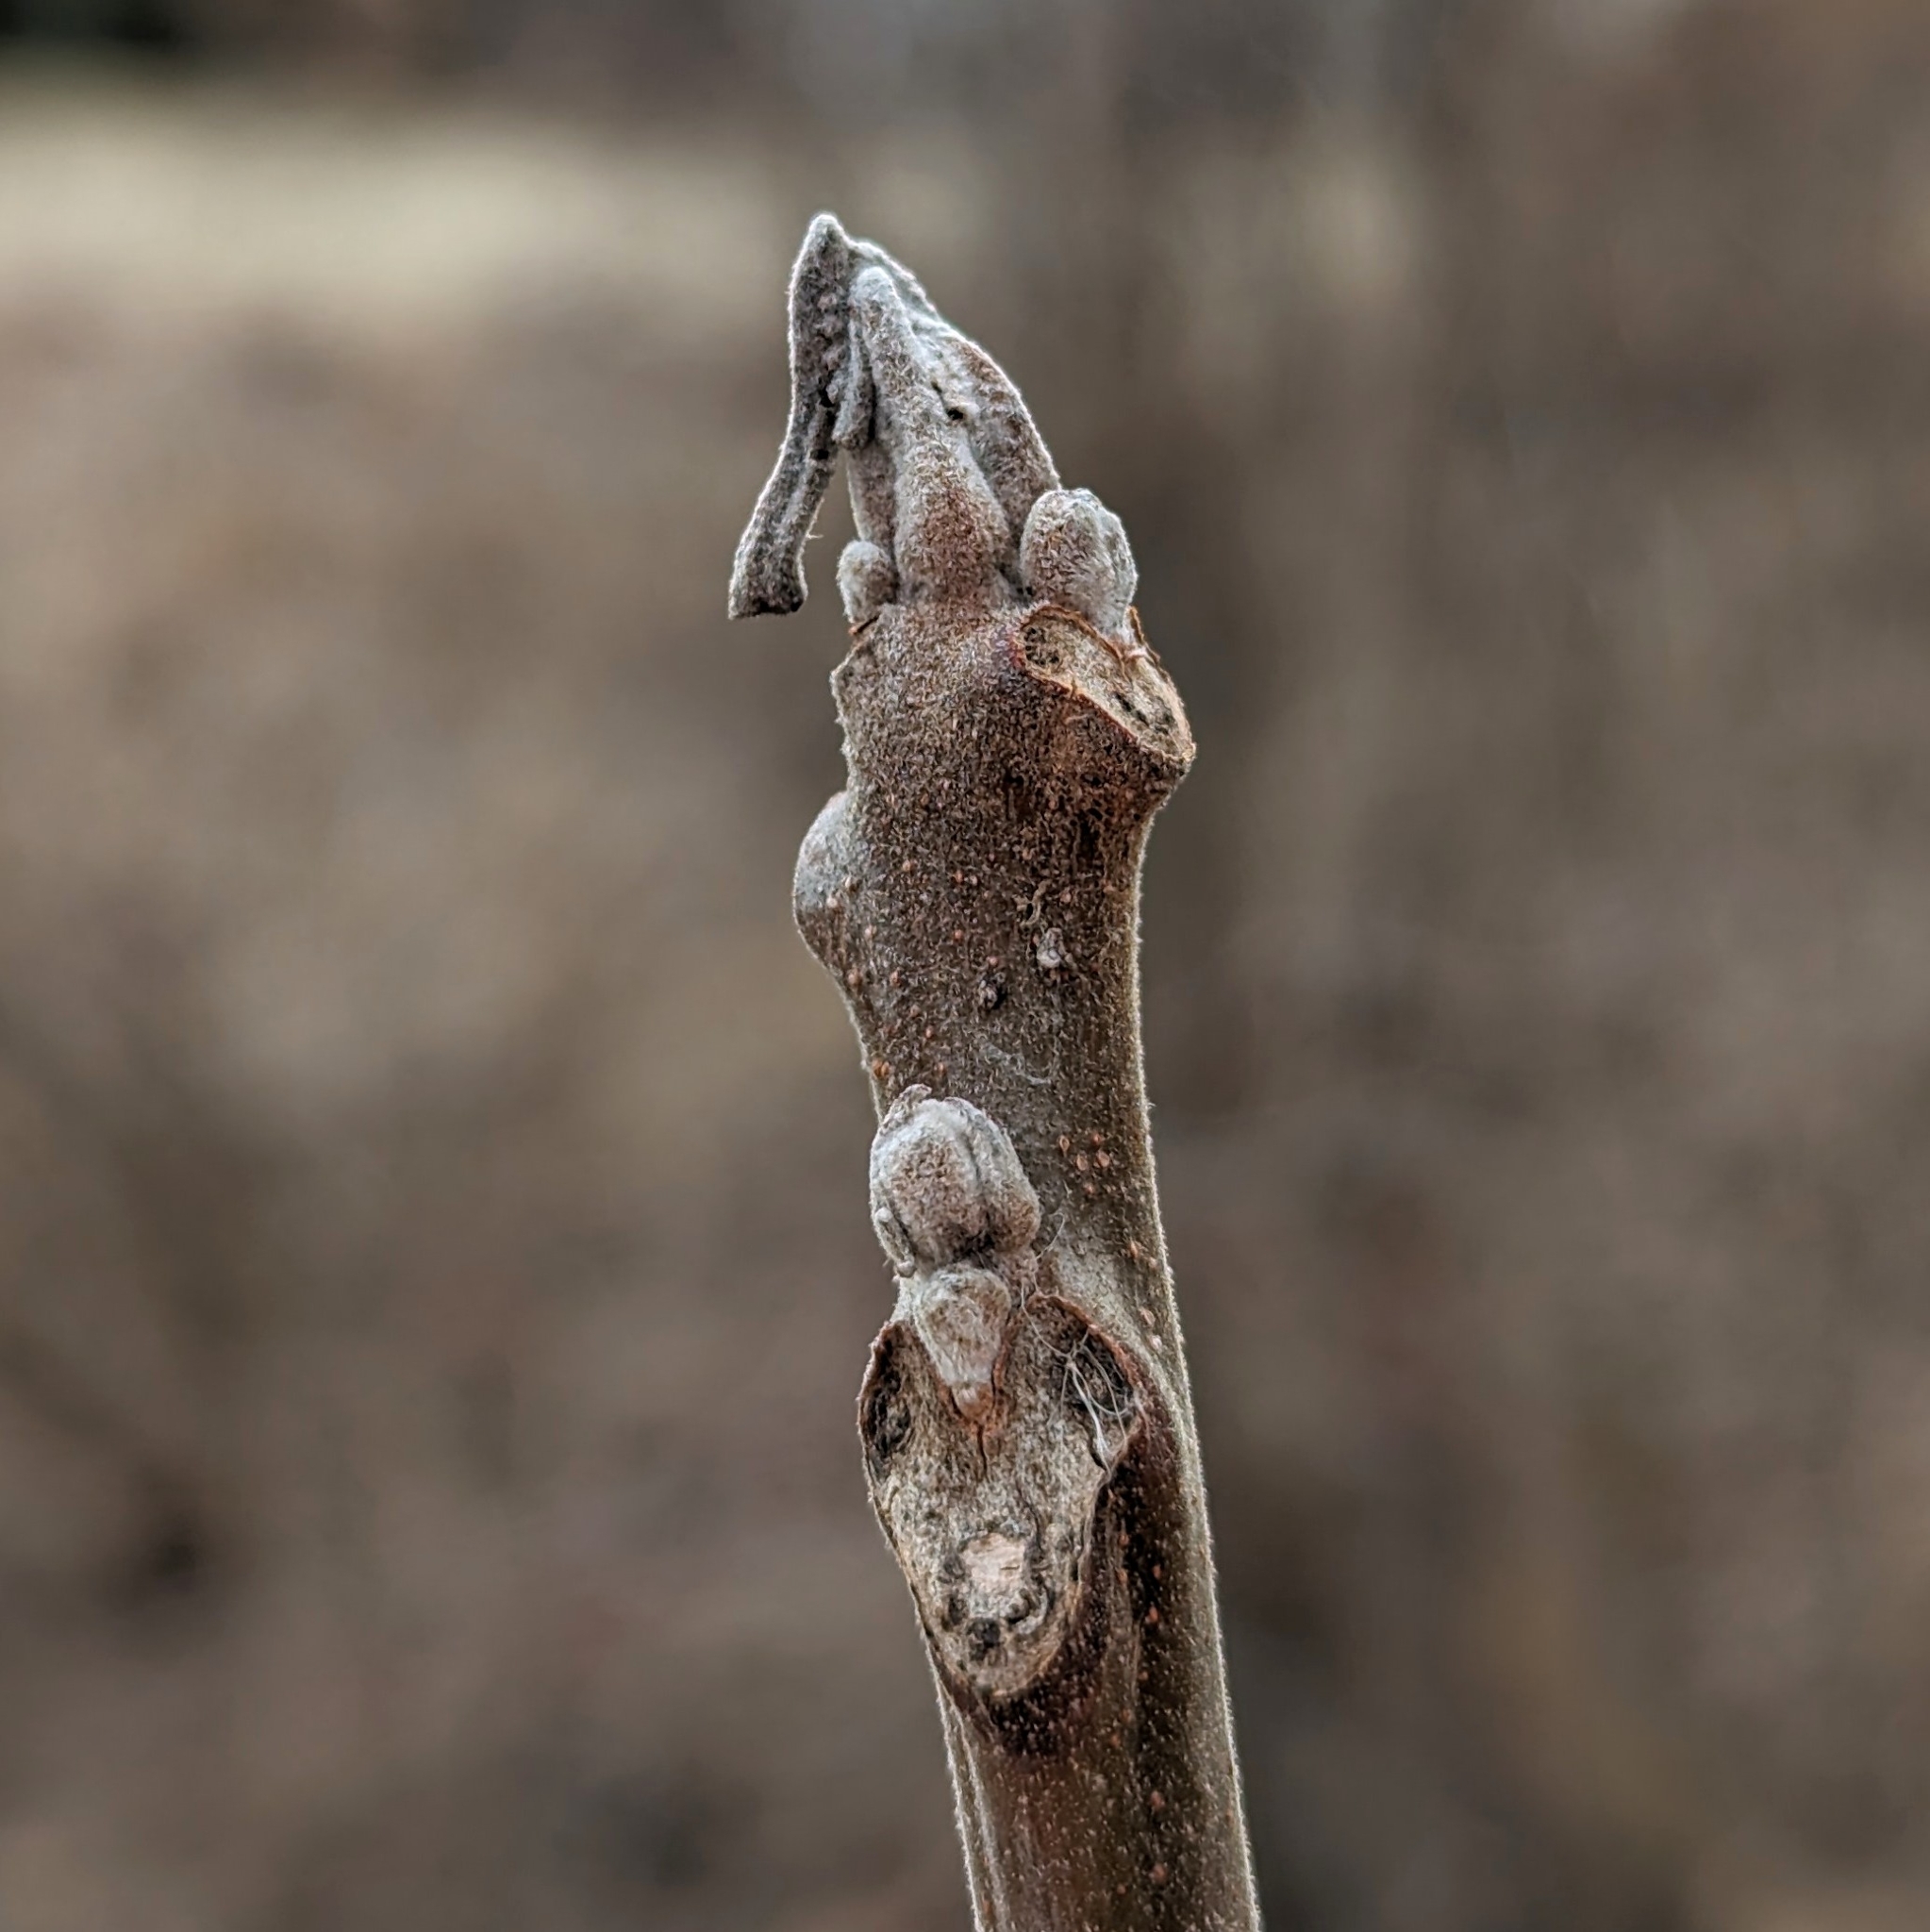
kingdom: Plantae
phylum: Tracheophyta
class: Magnoliopsida
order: Fagales
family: Juglandaceae
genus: Juglans
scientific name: Juglans nigra
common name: Black walnut
